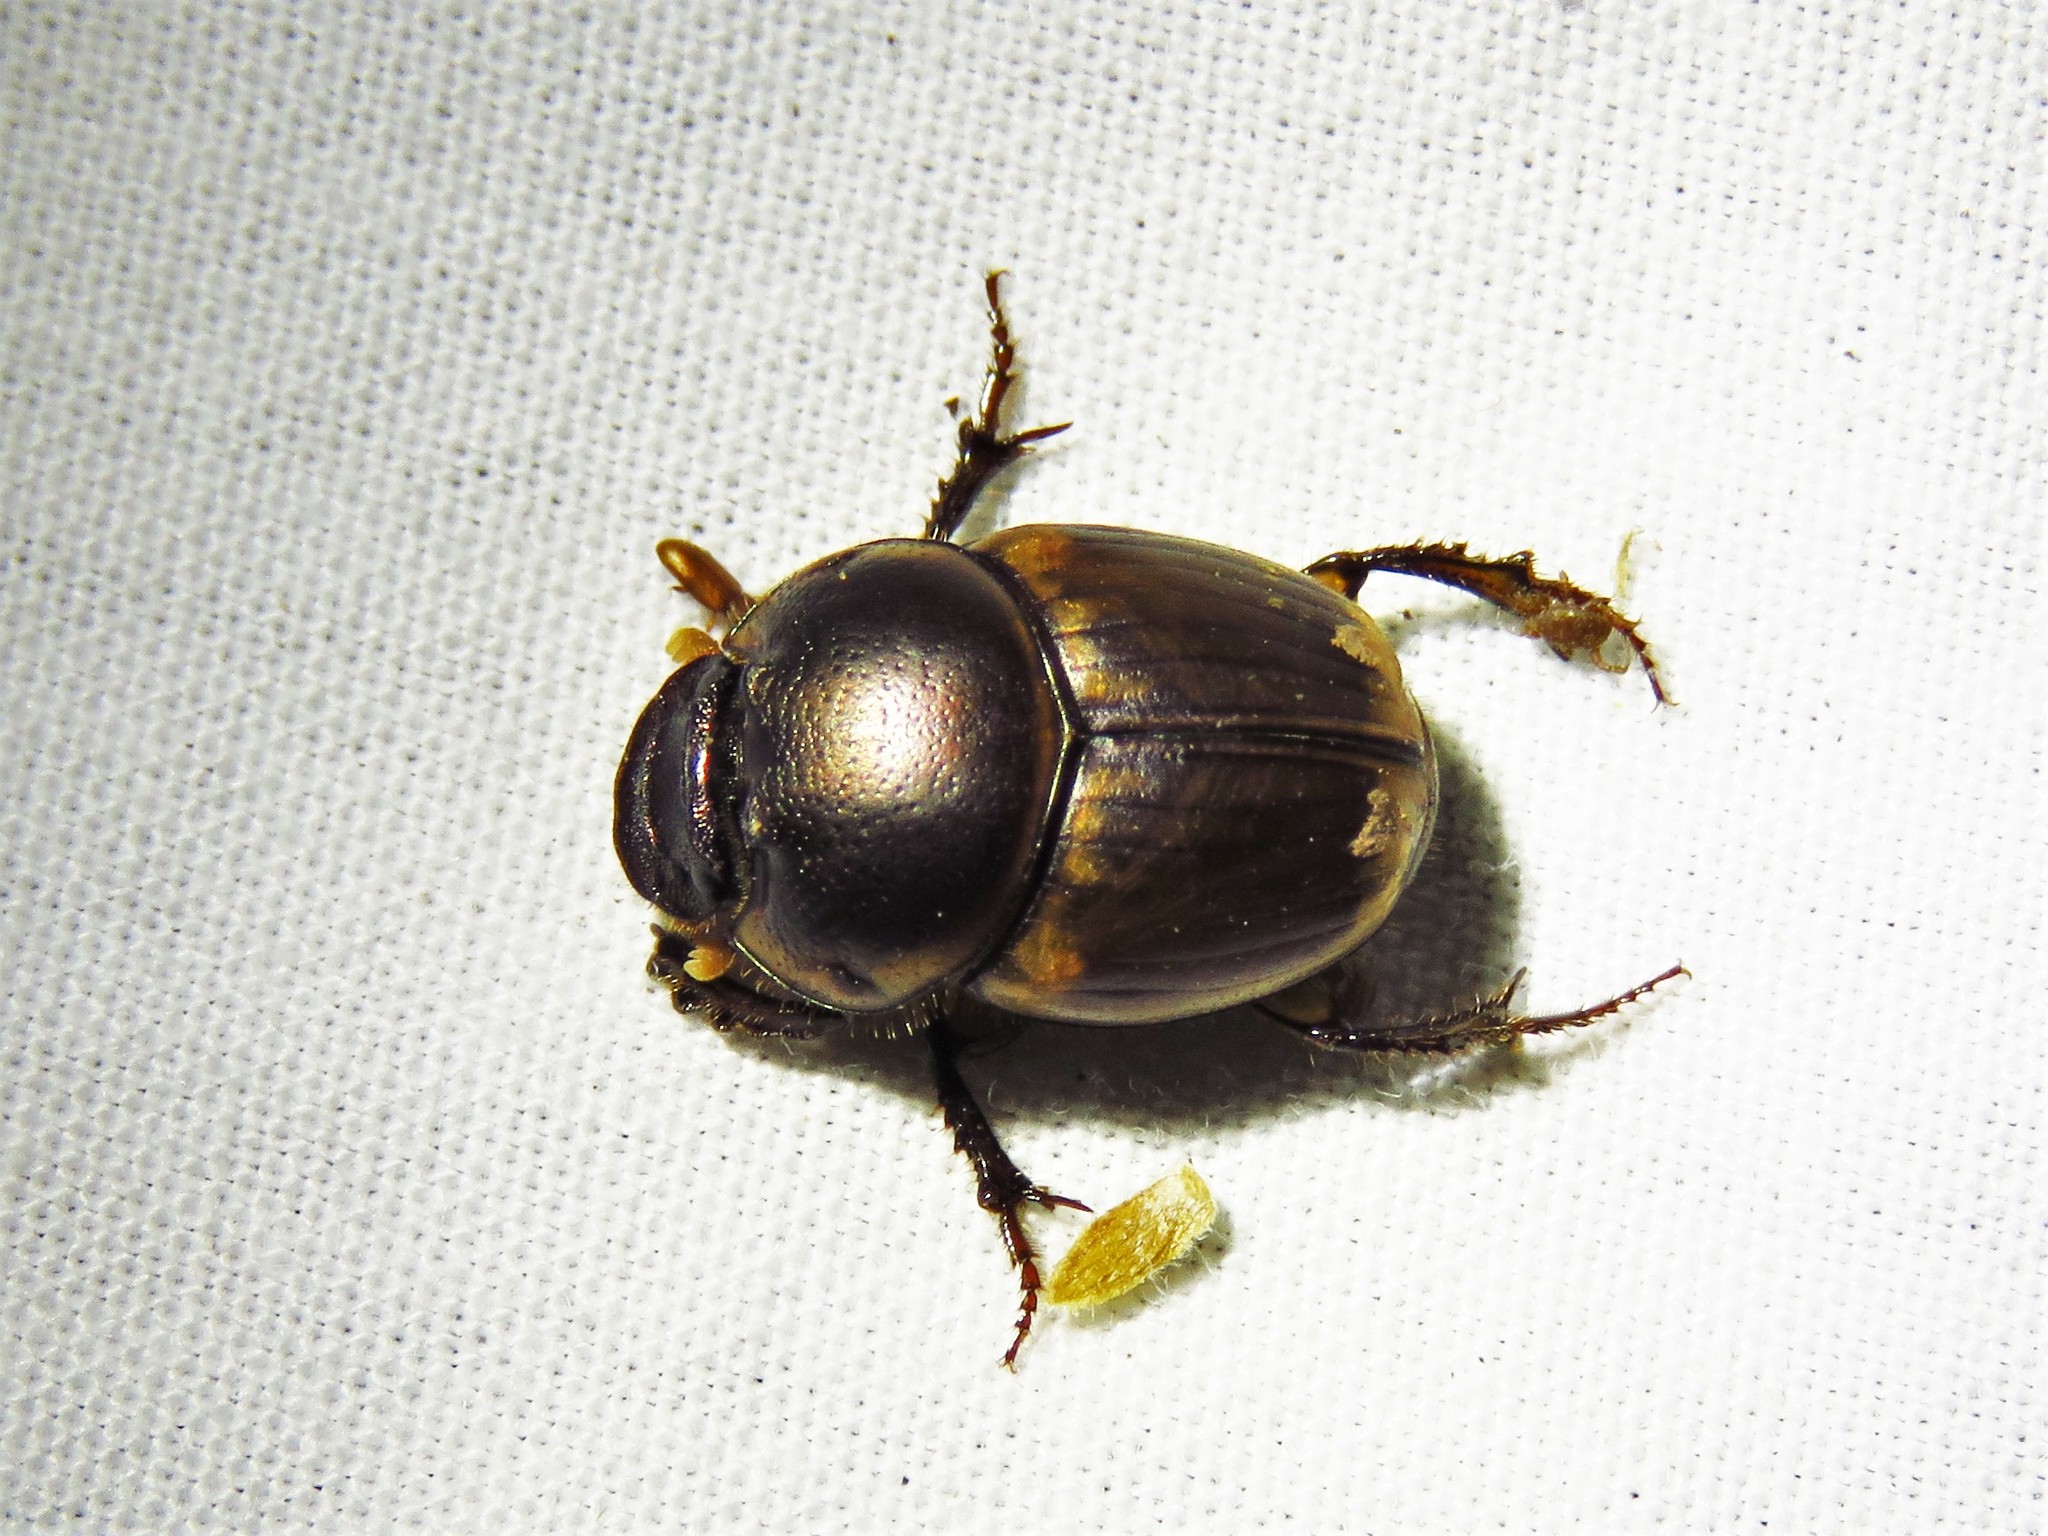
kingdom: Animalia
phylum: Arthropoda
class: Insecta
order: Coleoptera
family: Scarabaeidae
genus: Digitonthophagus
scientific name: Digitonthophagus gazella
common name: Brown dung beetle
